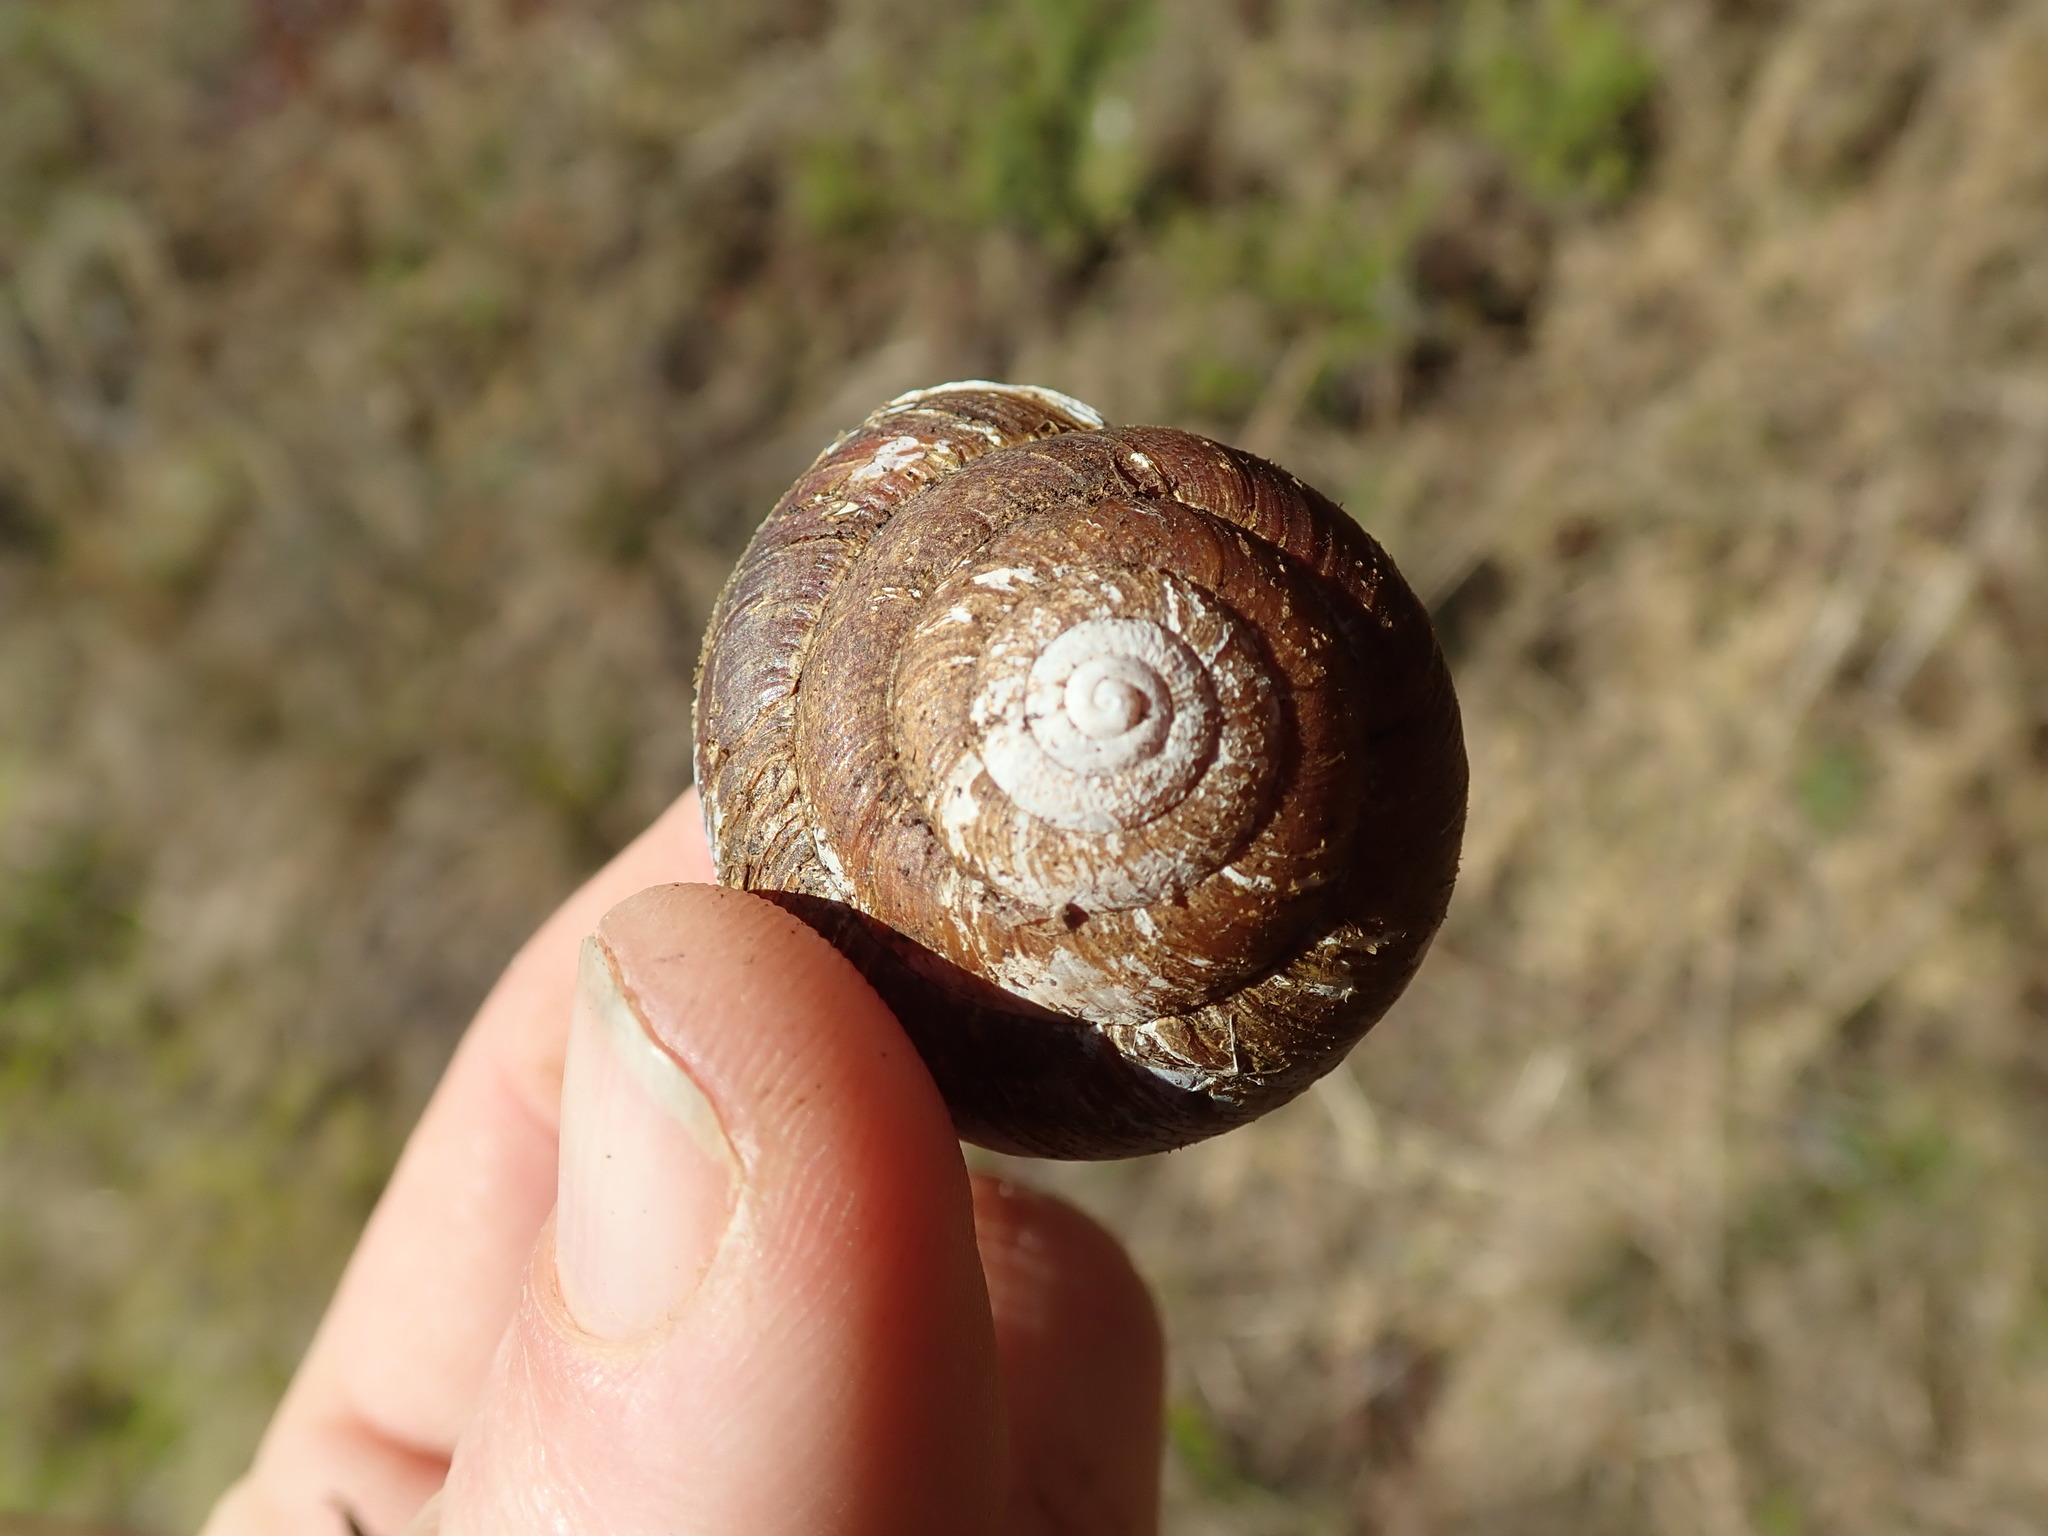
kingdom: Animalia
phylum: Mollusca
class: Gastropoda
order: Stylommatophora
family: Xanthonychidae
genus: Monadenia
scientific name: Monadenia fidelis
